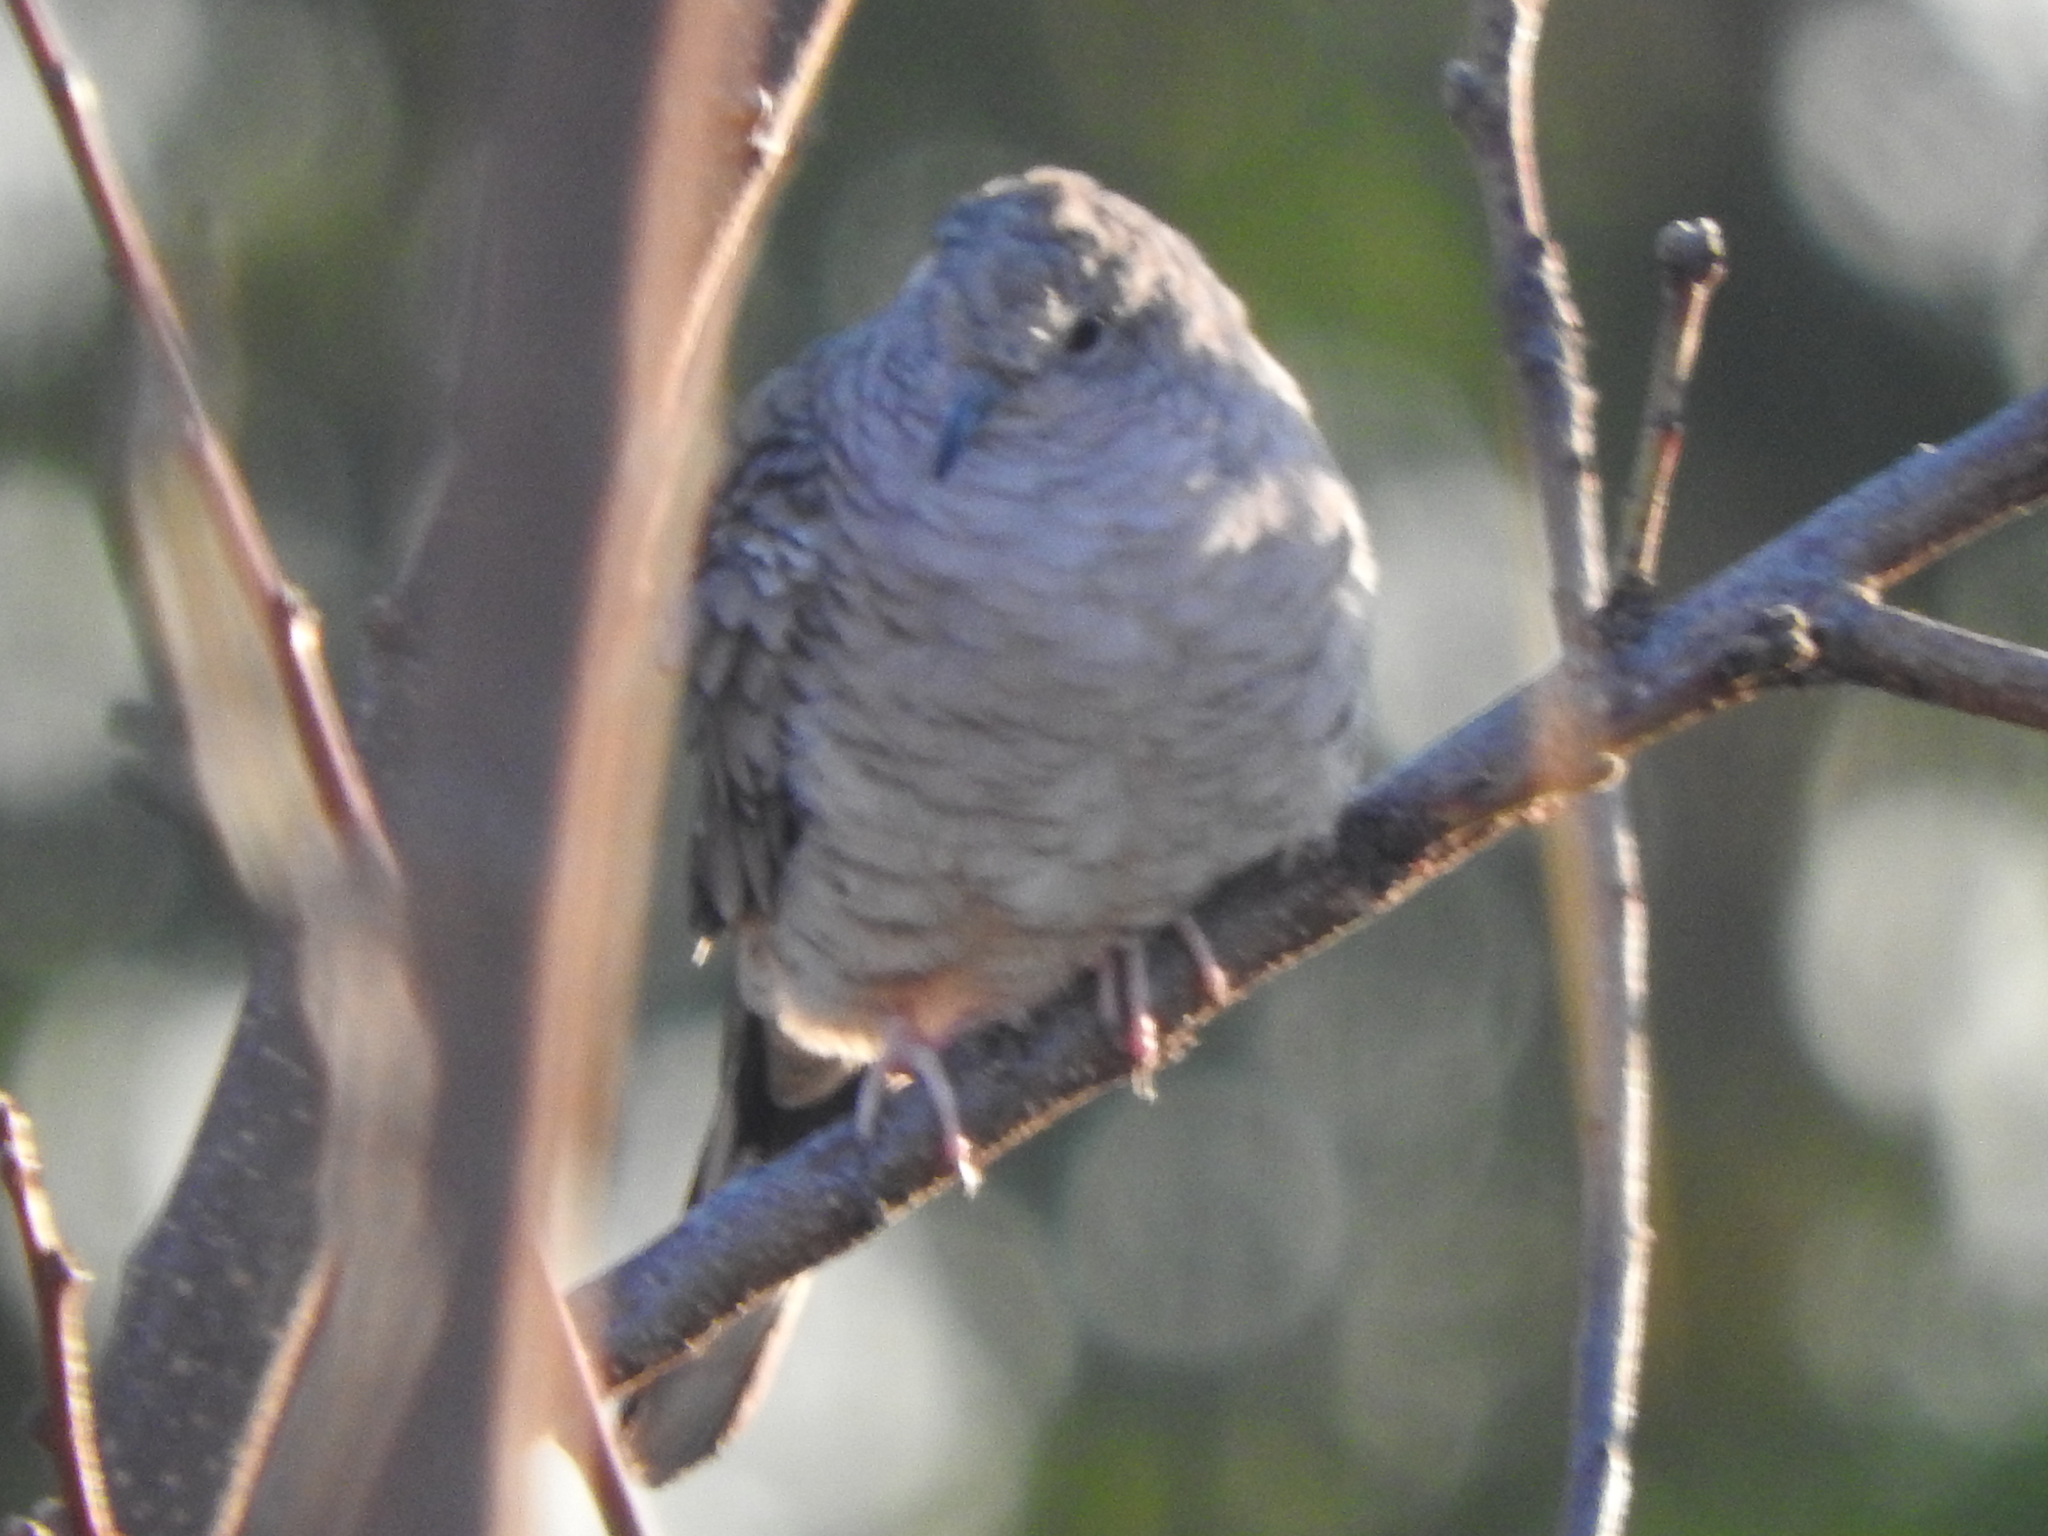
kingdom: Animalia
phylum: Chordata
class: Aves
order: Columbiformes
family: Columbidae
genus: Columbina
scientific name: Columbina inca
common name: Inca dove
